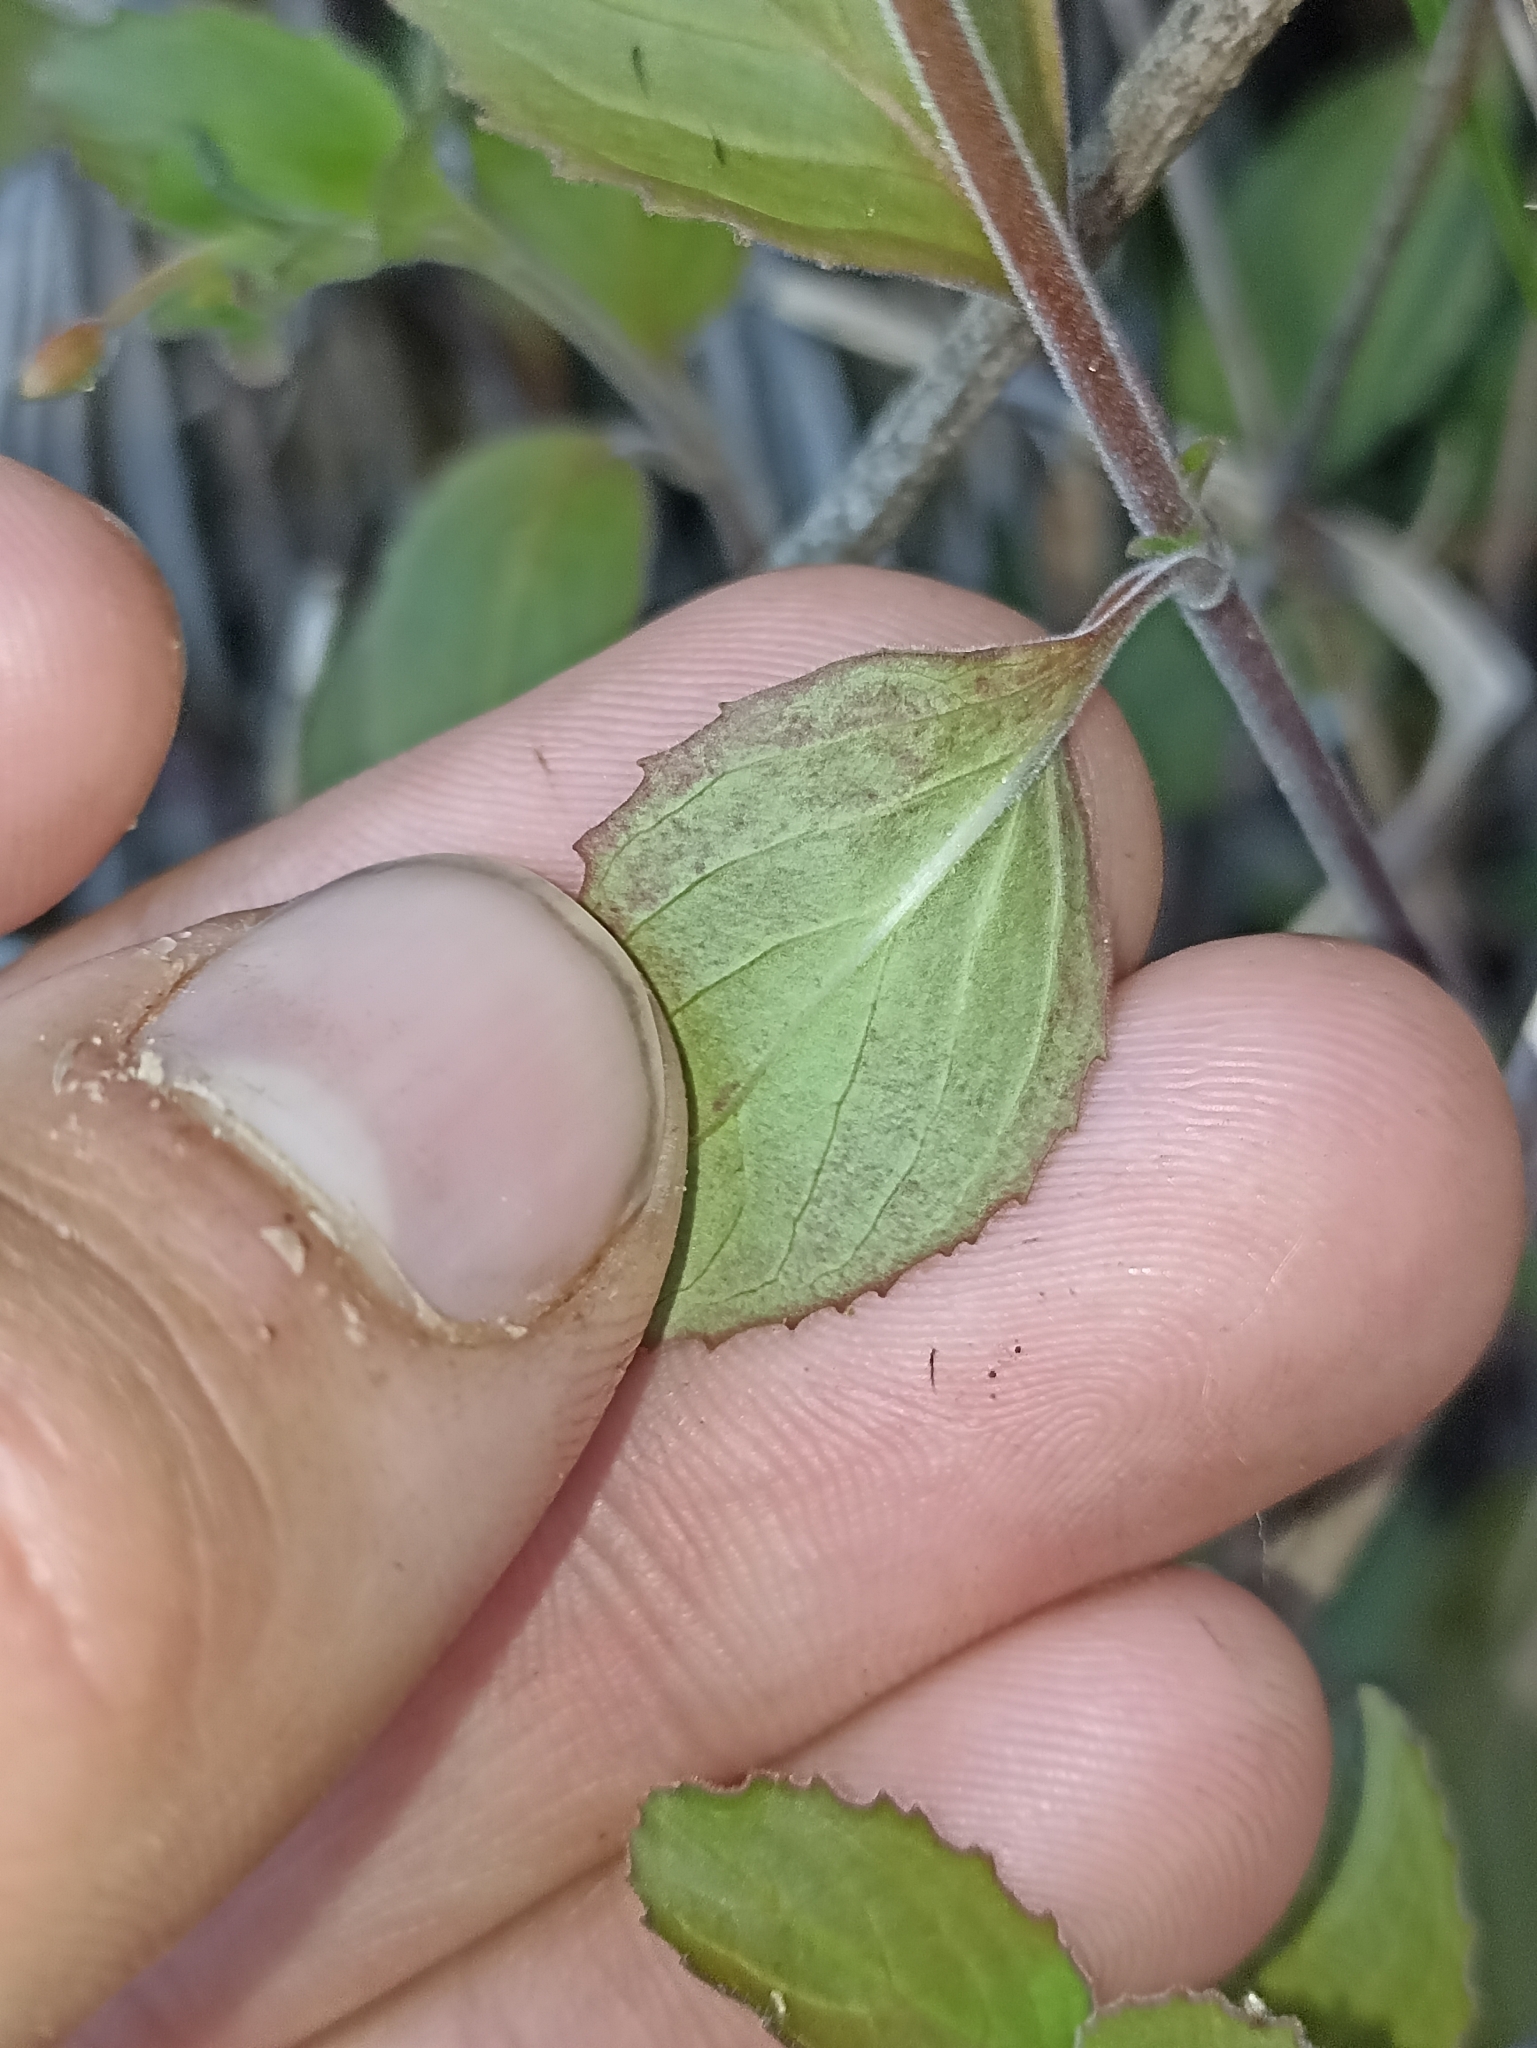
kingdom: Plantae
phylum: Tracheophyta
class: Magnoliopsida
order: Myrtales
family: Onagraceae
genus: Epilobium
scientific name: Epilobium pubens
